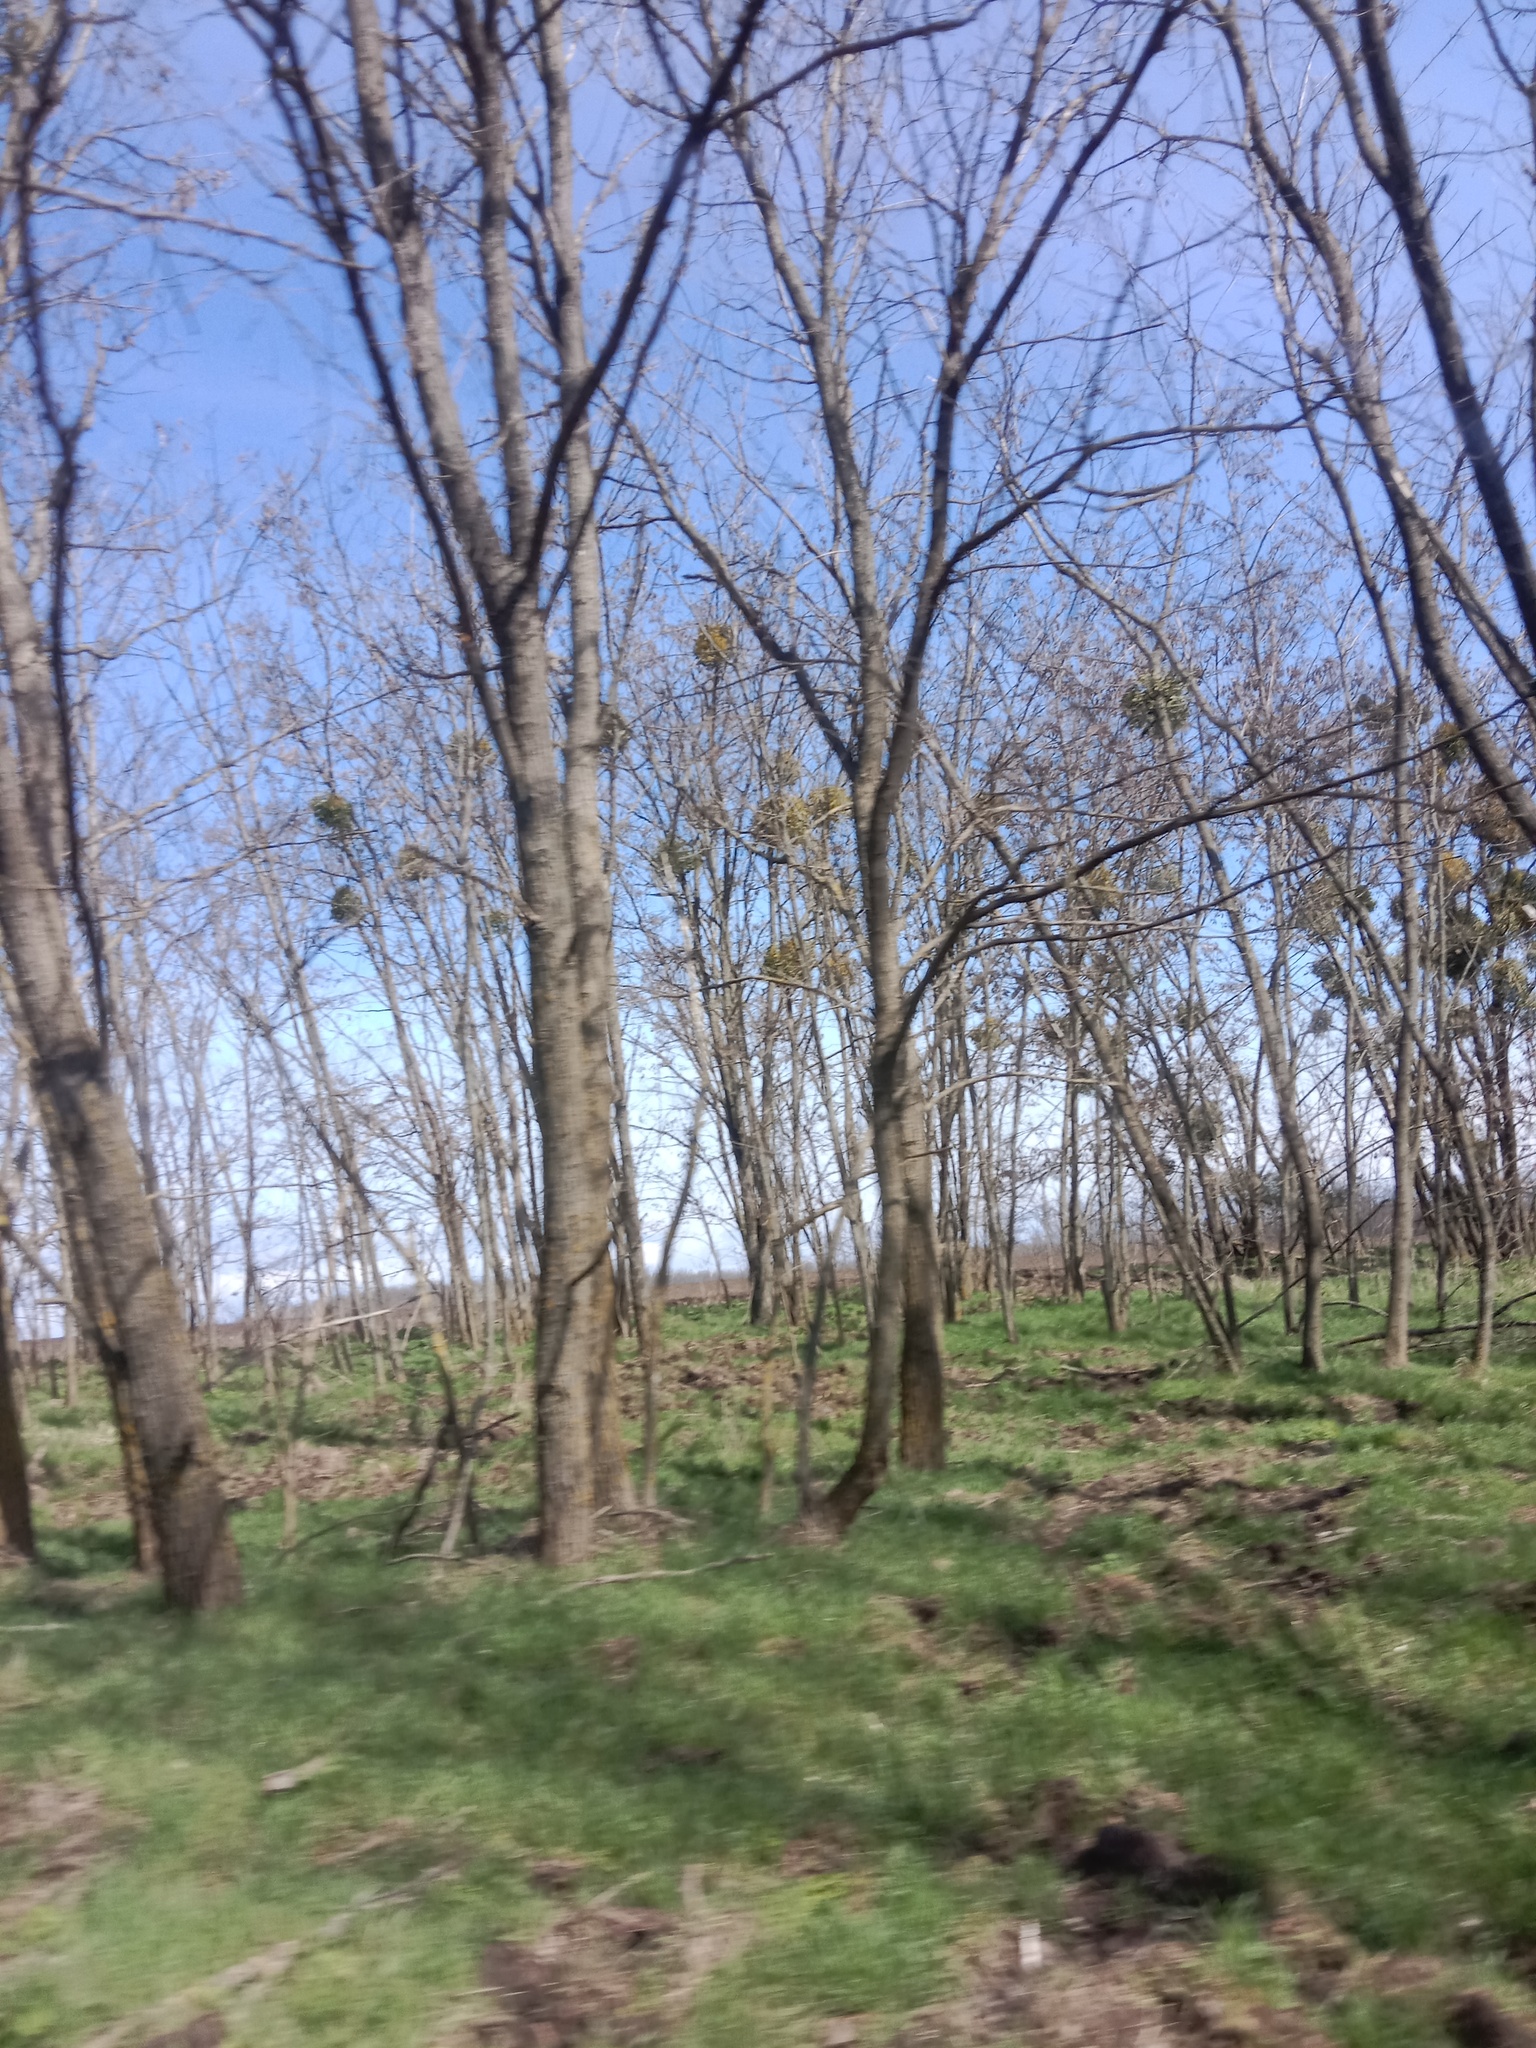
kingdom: Plantae
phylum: Tracheophyta
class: Magnoliopsida
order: Santalales
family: Viscaceae
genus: Viscum
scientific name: Viscum album
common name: Mistletoe
